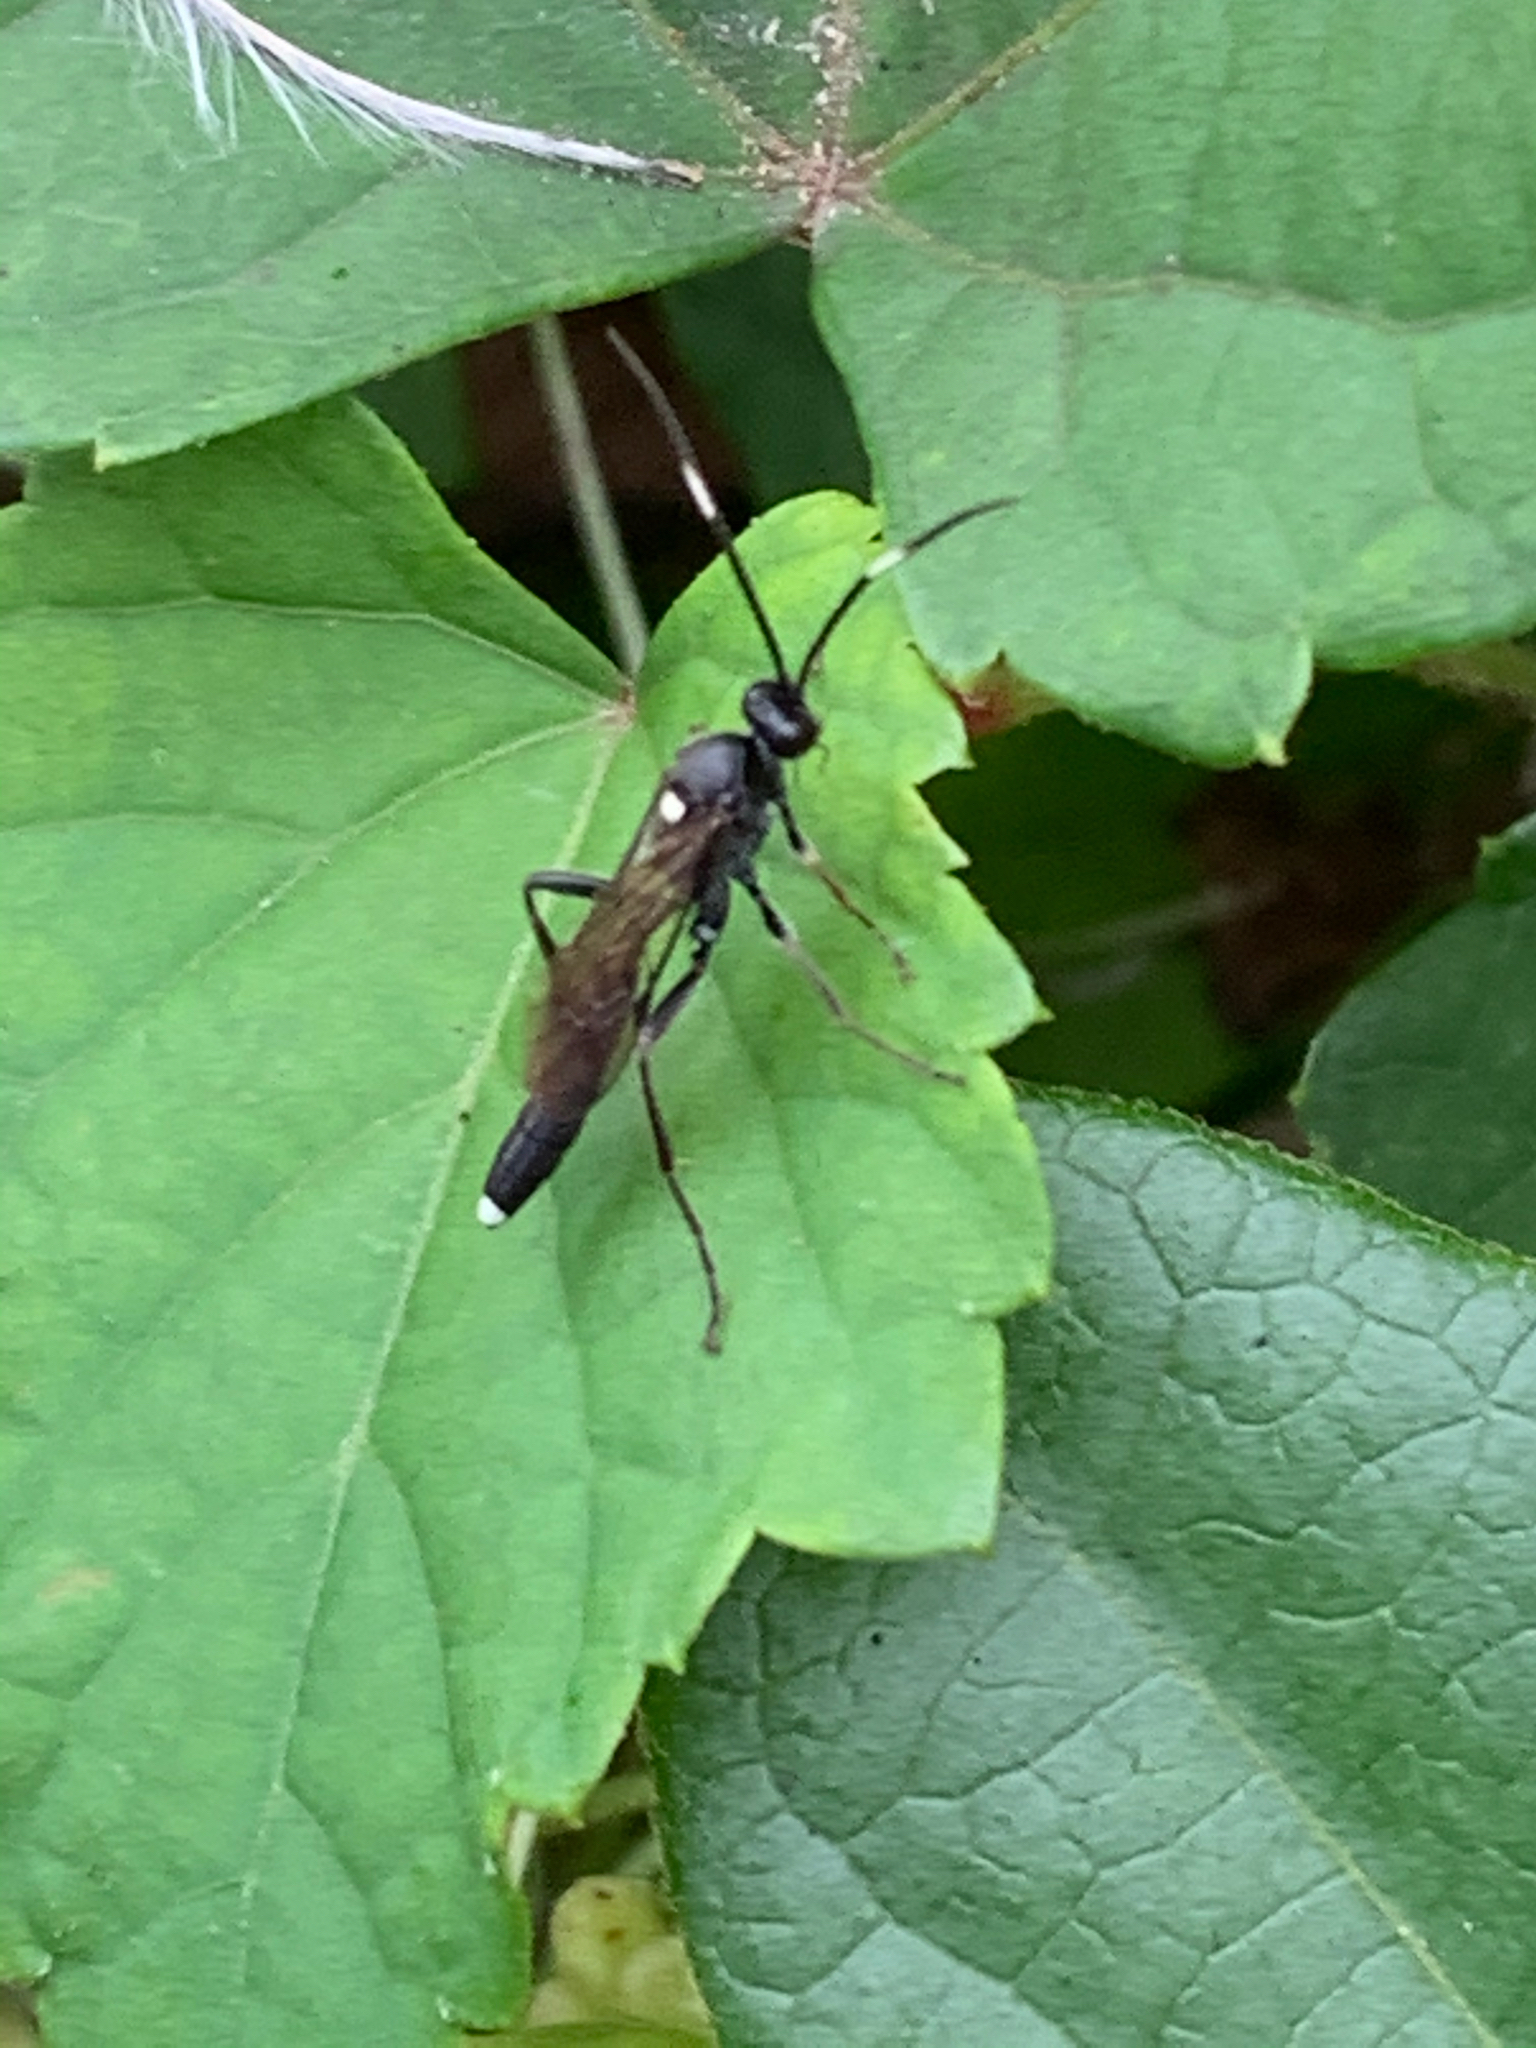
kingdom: Animalia
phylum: Arthropoda
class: Insecta
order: Hymenoptera
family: Ichneumonidae
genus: Vulgichneumon
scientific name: Vulgichneumon brevicinctor
